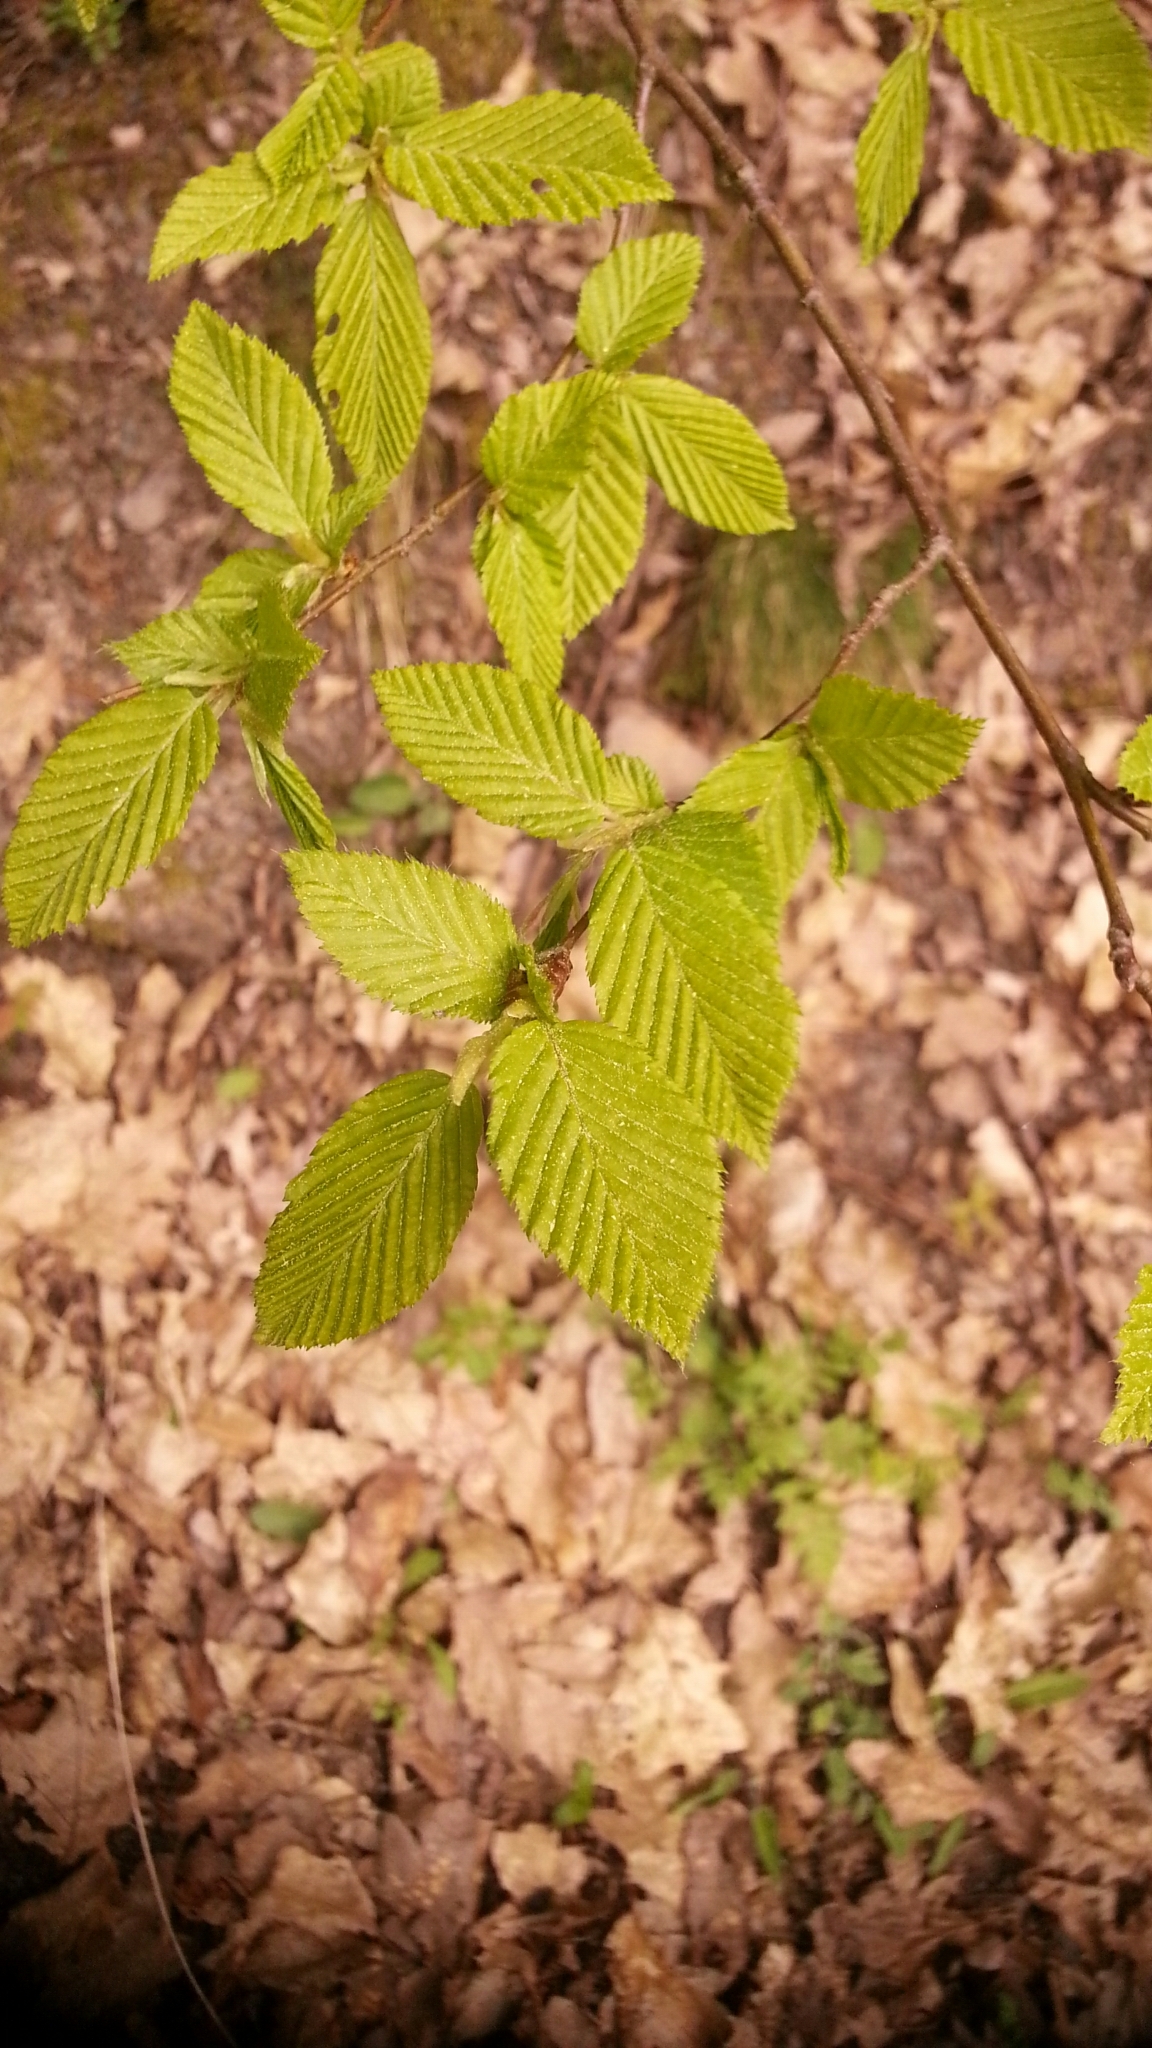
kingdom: Plantae
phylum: Tracheophyta
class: Magnoliopsida
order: Fagales
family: Betulaceae
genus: Carpinus
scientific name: Carpinus betulus
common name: Hornbeam
